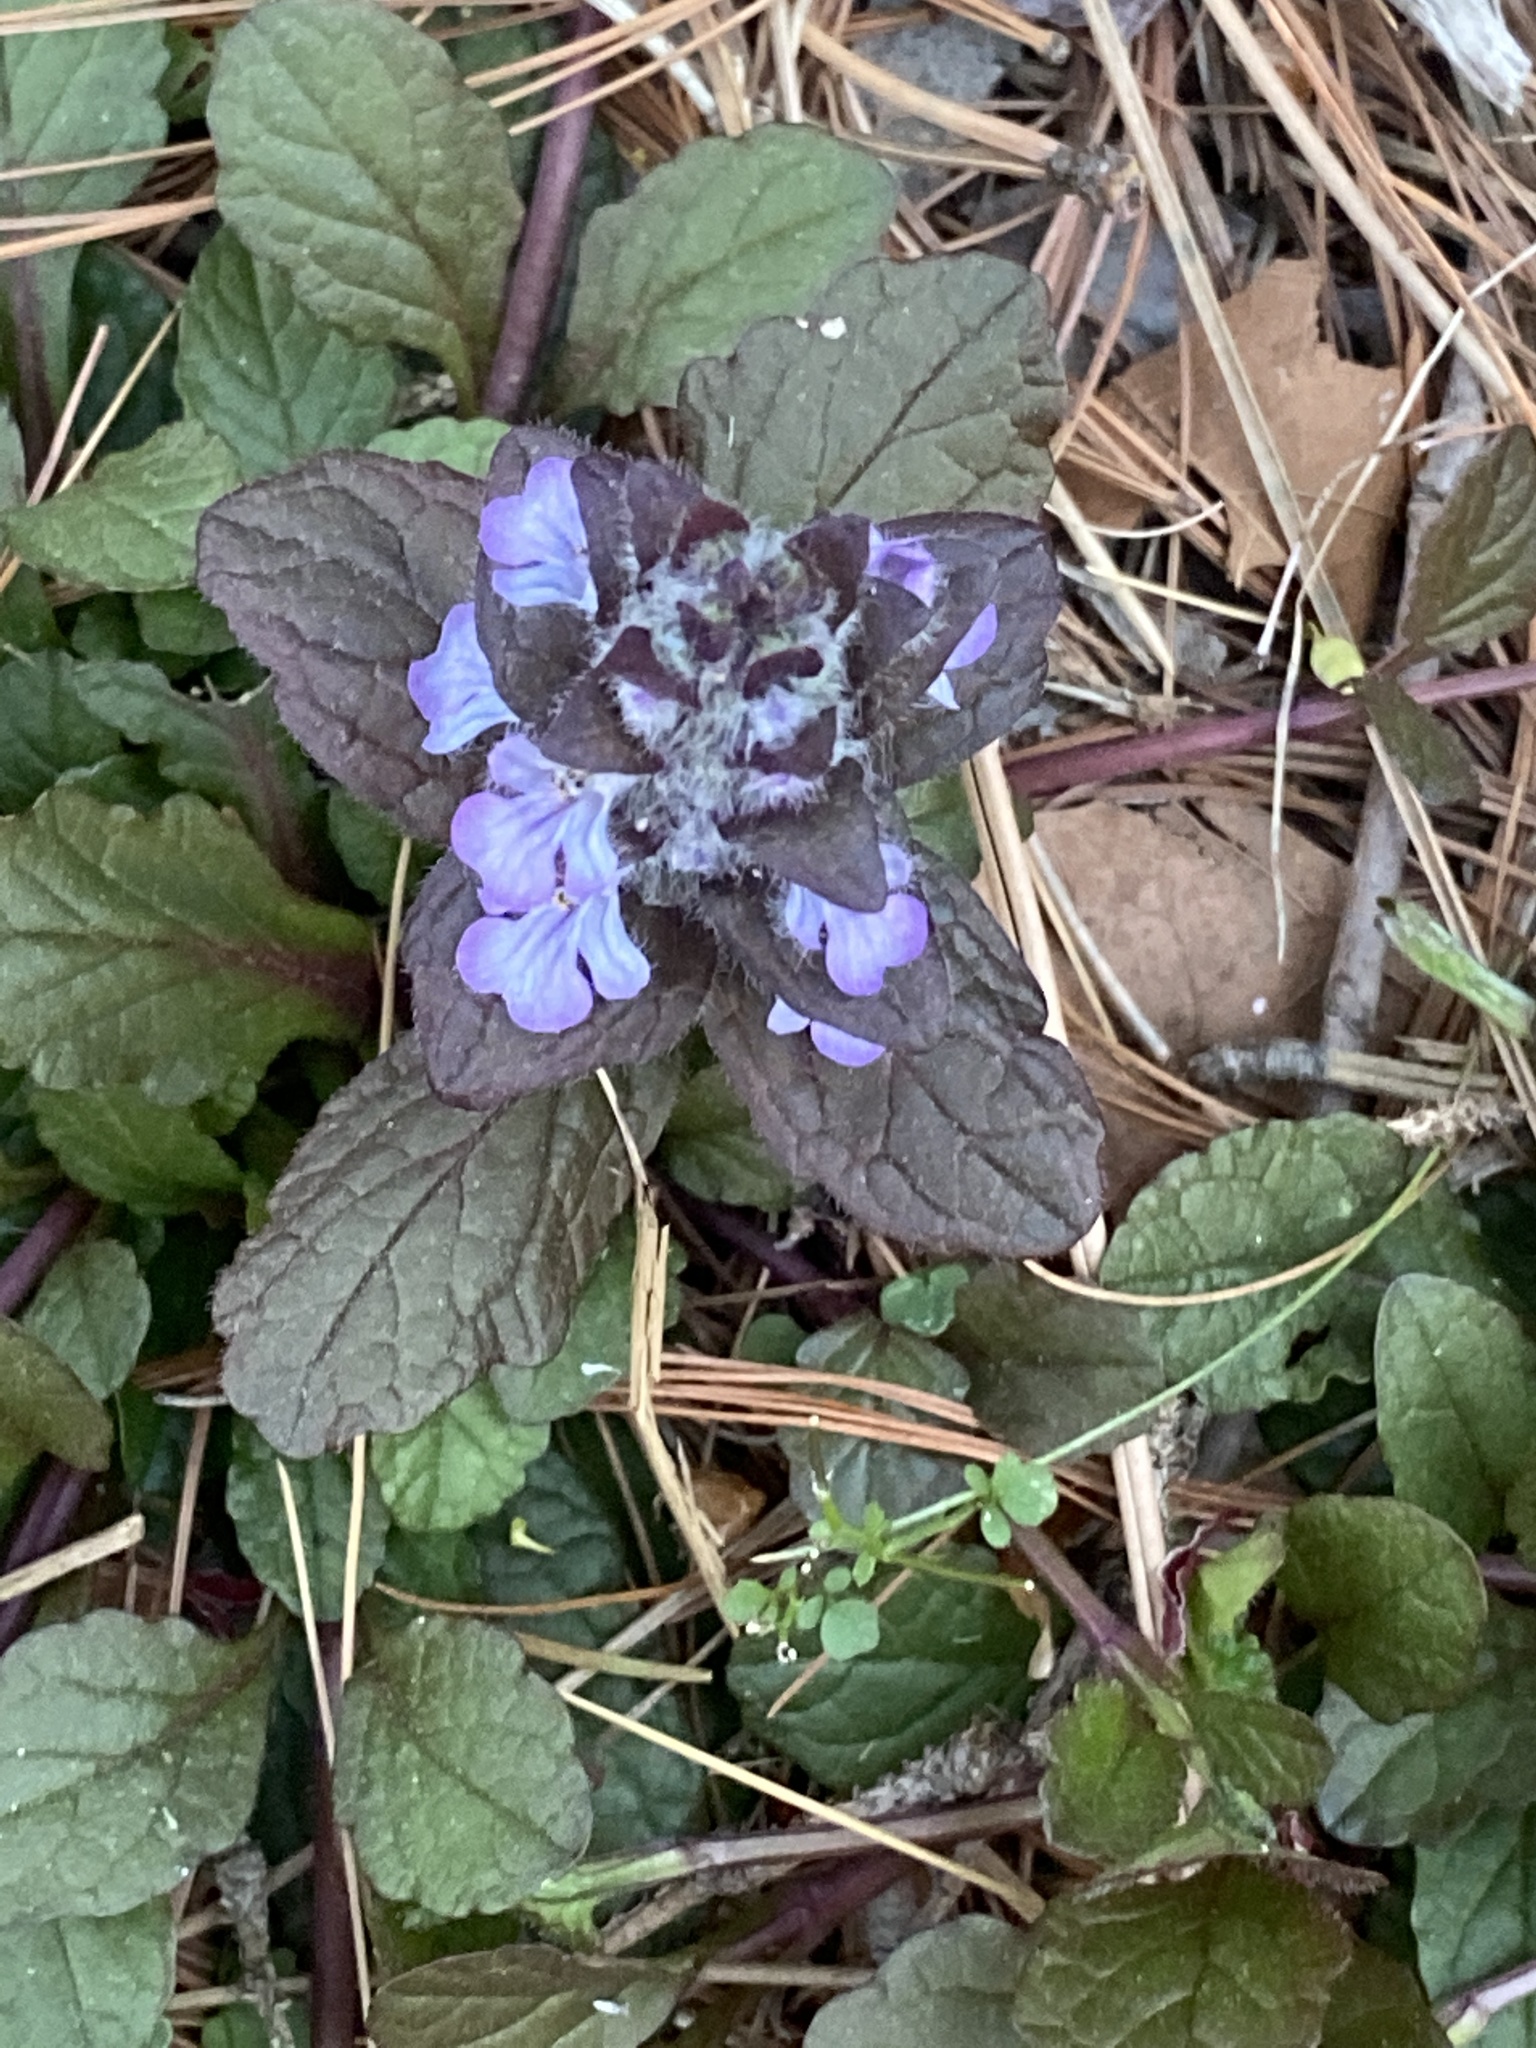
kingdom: Plantae
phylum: Tracheophyta
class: Magnoliopsida
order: Lamiales
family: Lamiaceae
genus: Ajuga
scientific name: Ajuga reptans
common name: Bugle
